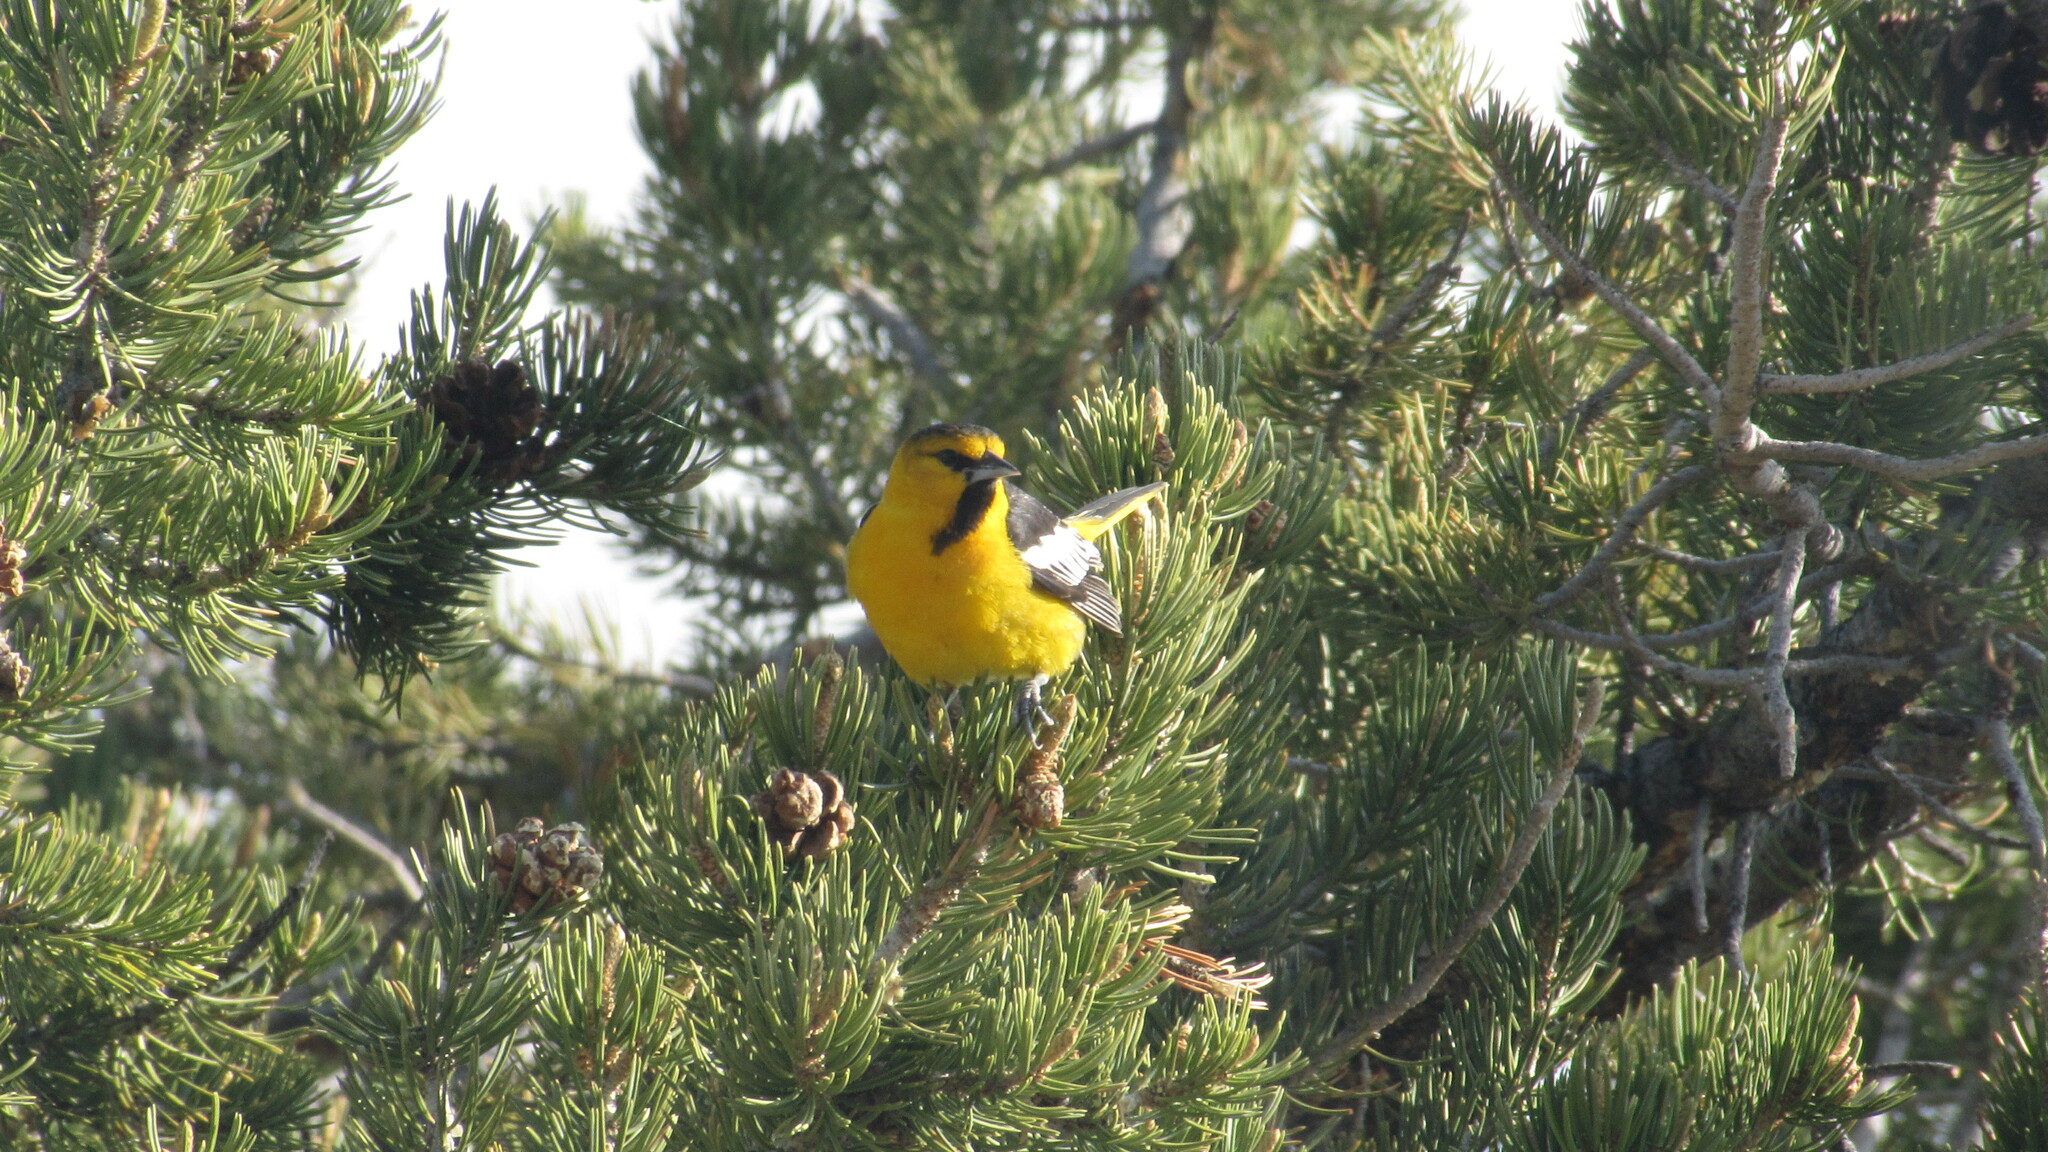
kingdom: Animalia
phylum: Chordata
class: Aves
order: Passeriformes
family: Icteridae
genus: Icterus
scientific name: Icterus bullockii
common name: Bullock's oriole
